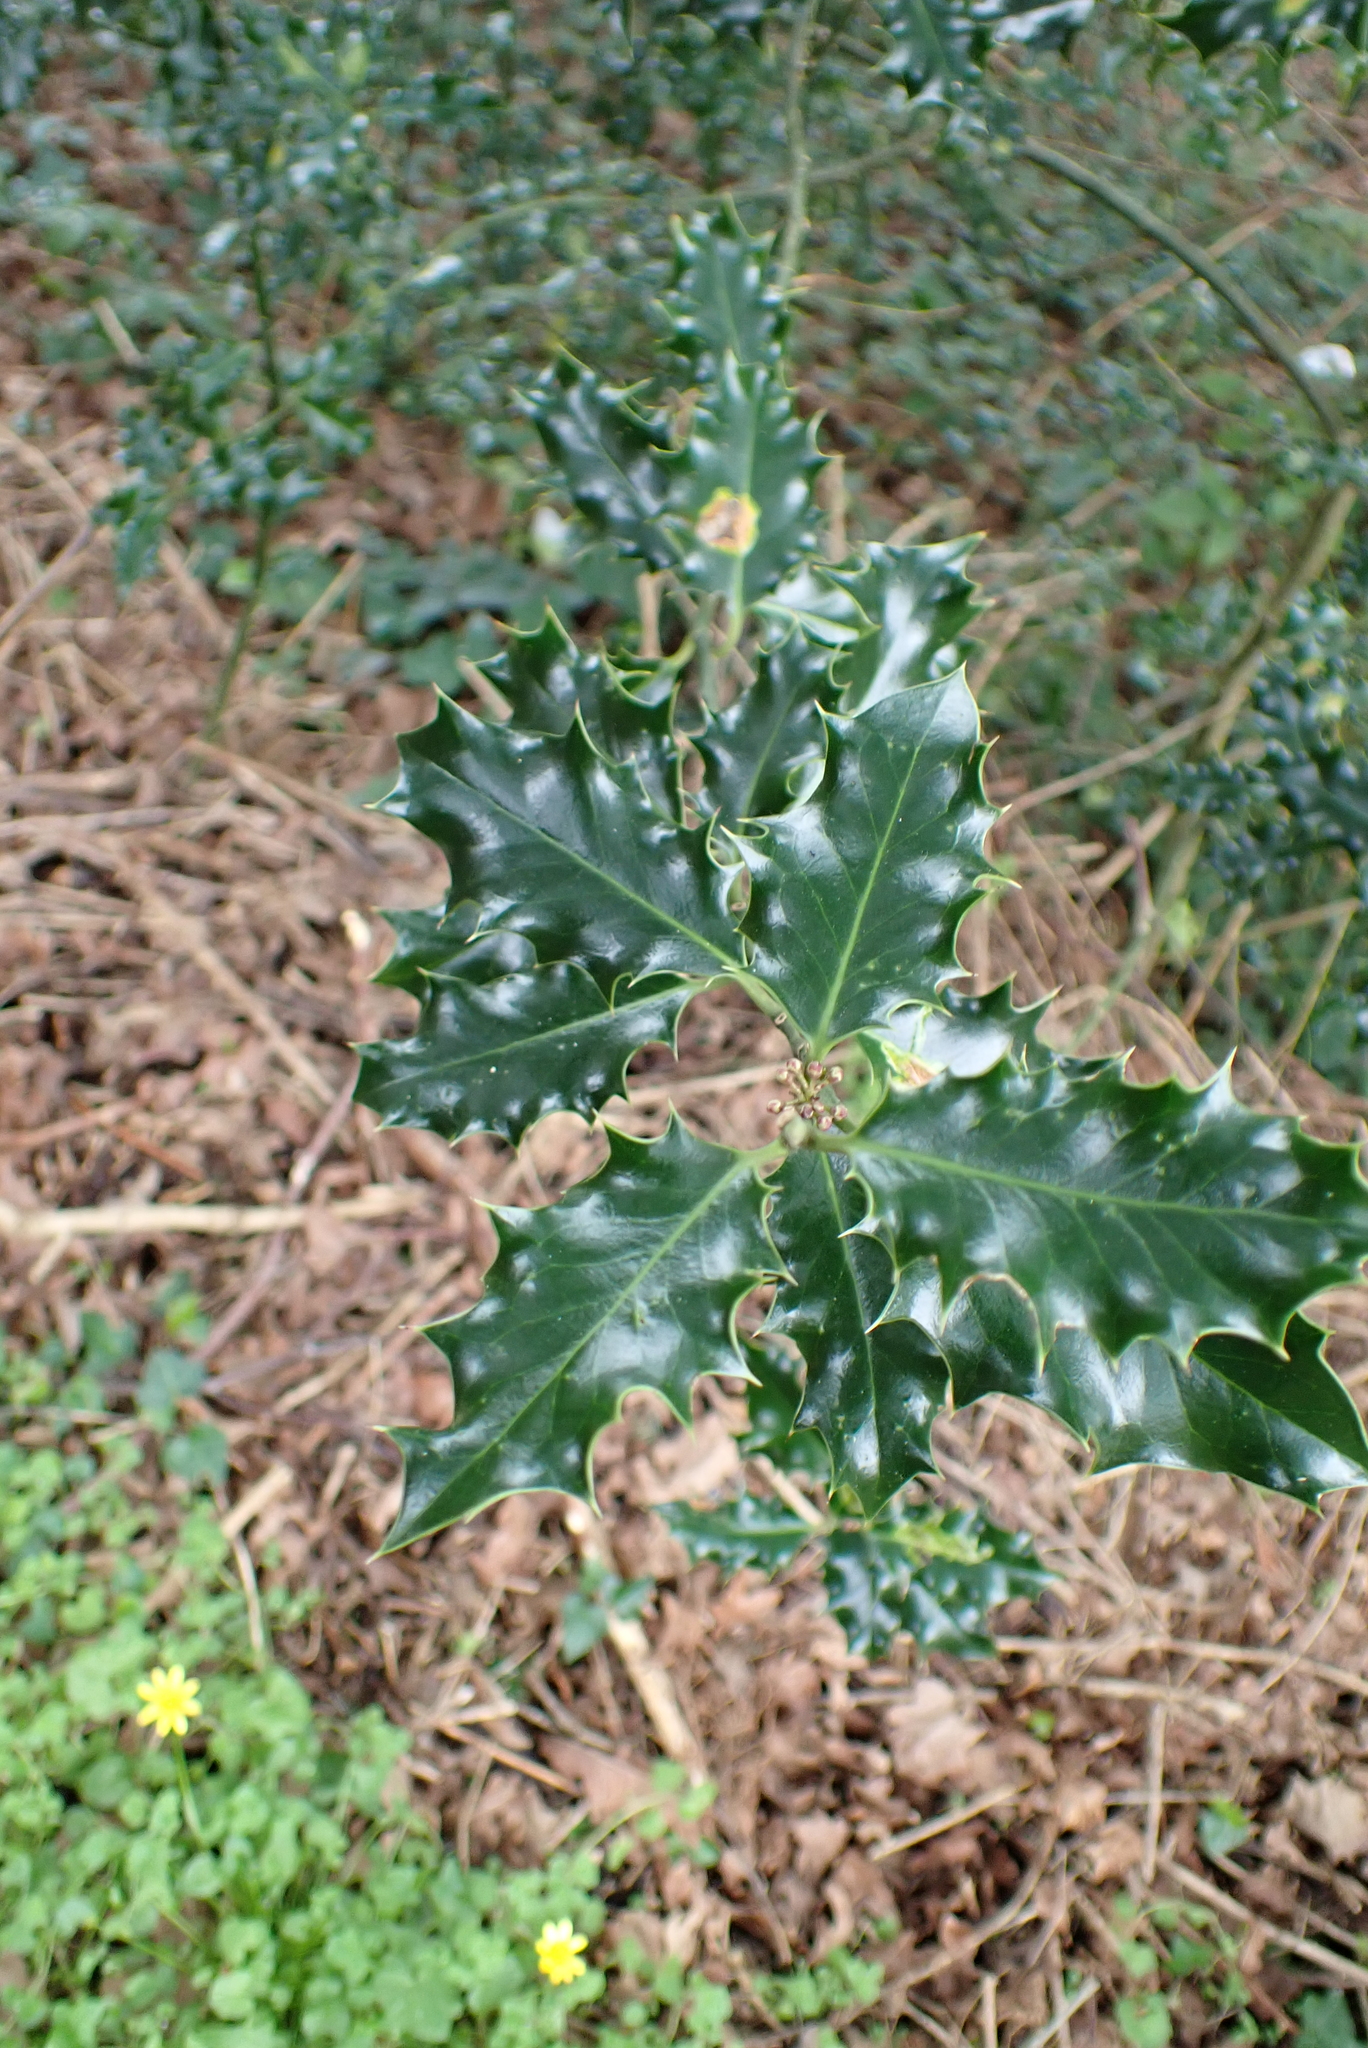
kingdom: Plantae
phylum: Tracheophyta
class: Magnoliopsida
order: Aquifoliales
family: Aquifoliaceae
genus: Ilex
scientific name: Ilex aquifolium
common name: English holly
